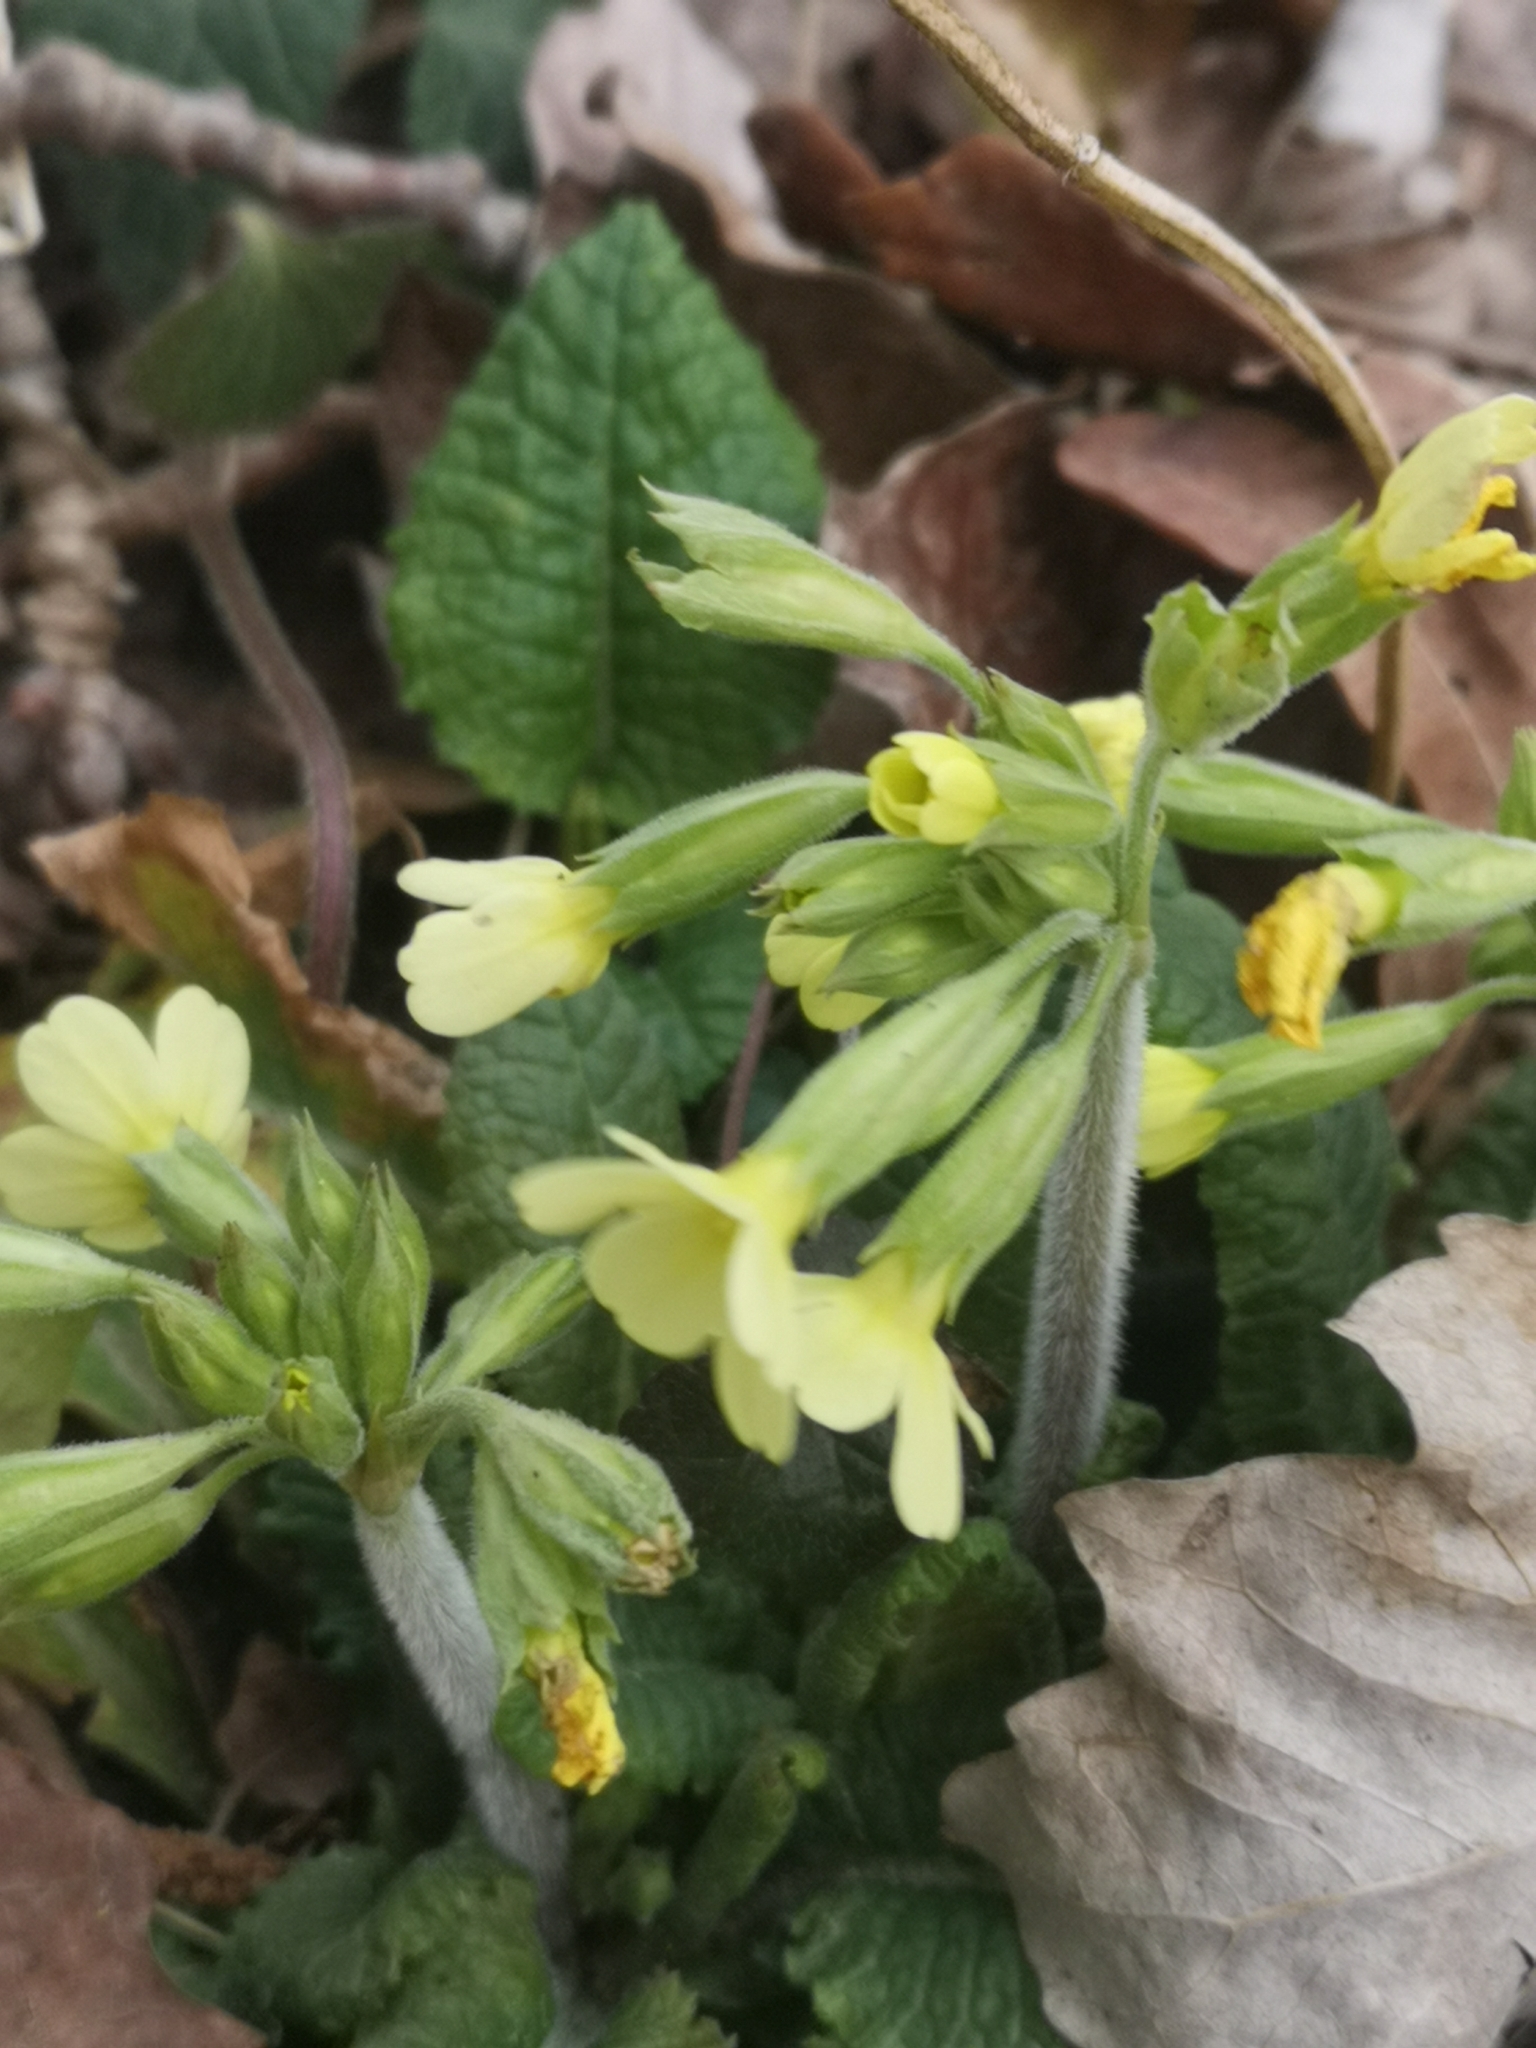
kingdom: Plantae
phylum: Tracheophyta
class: Magnoliopsida
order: Ericales
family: Primulaceae
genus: Primula
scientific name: Primula elatior
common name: Oxlip
